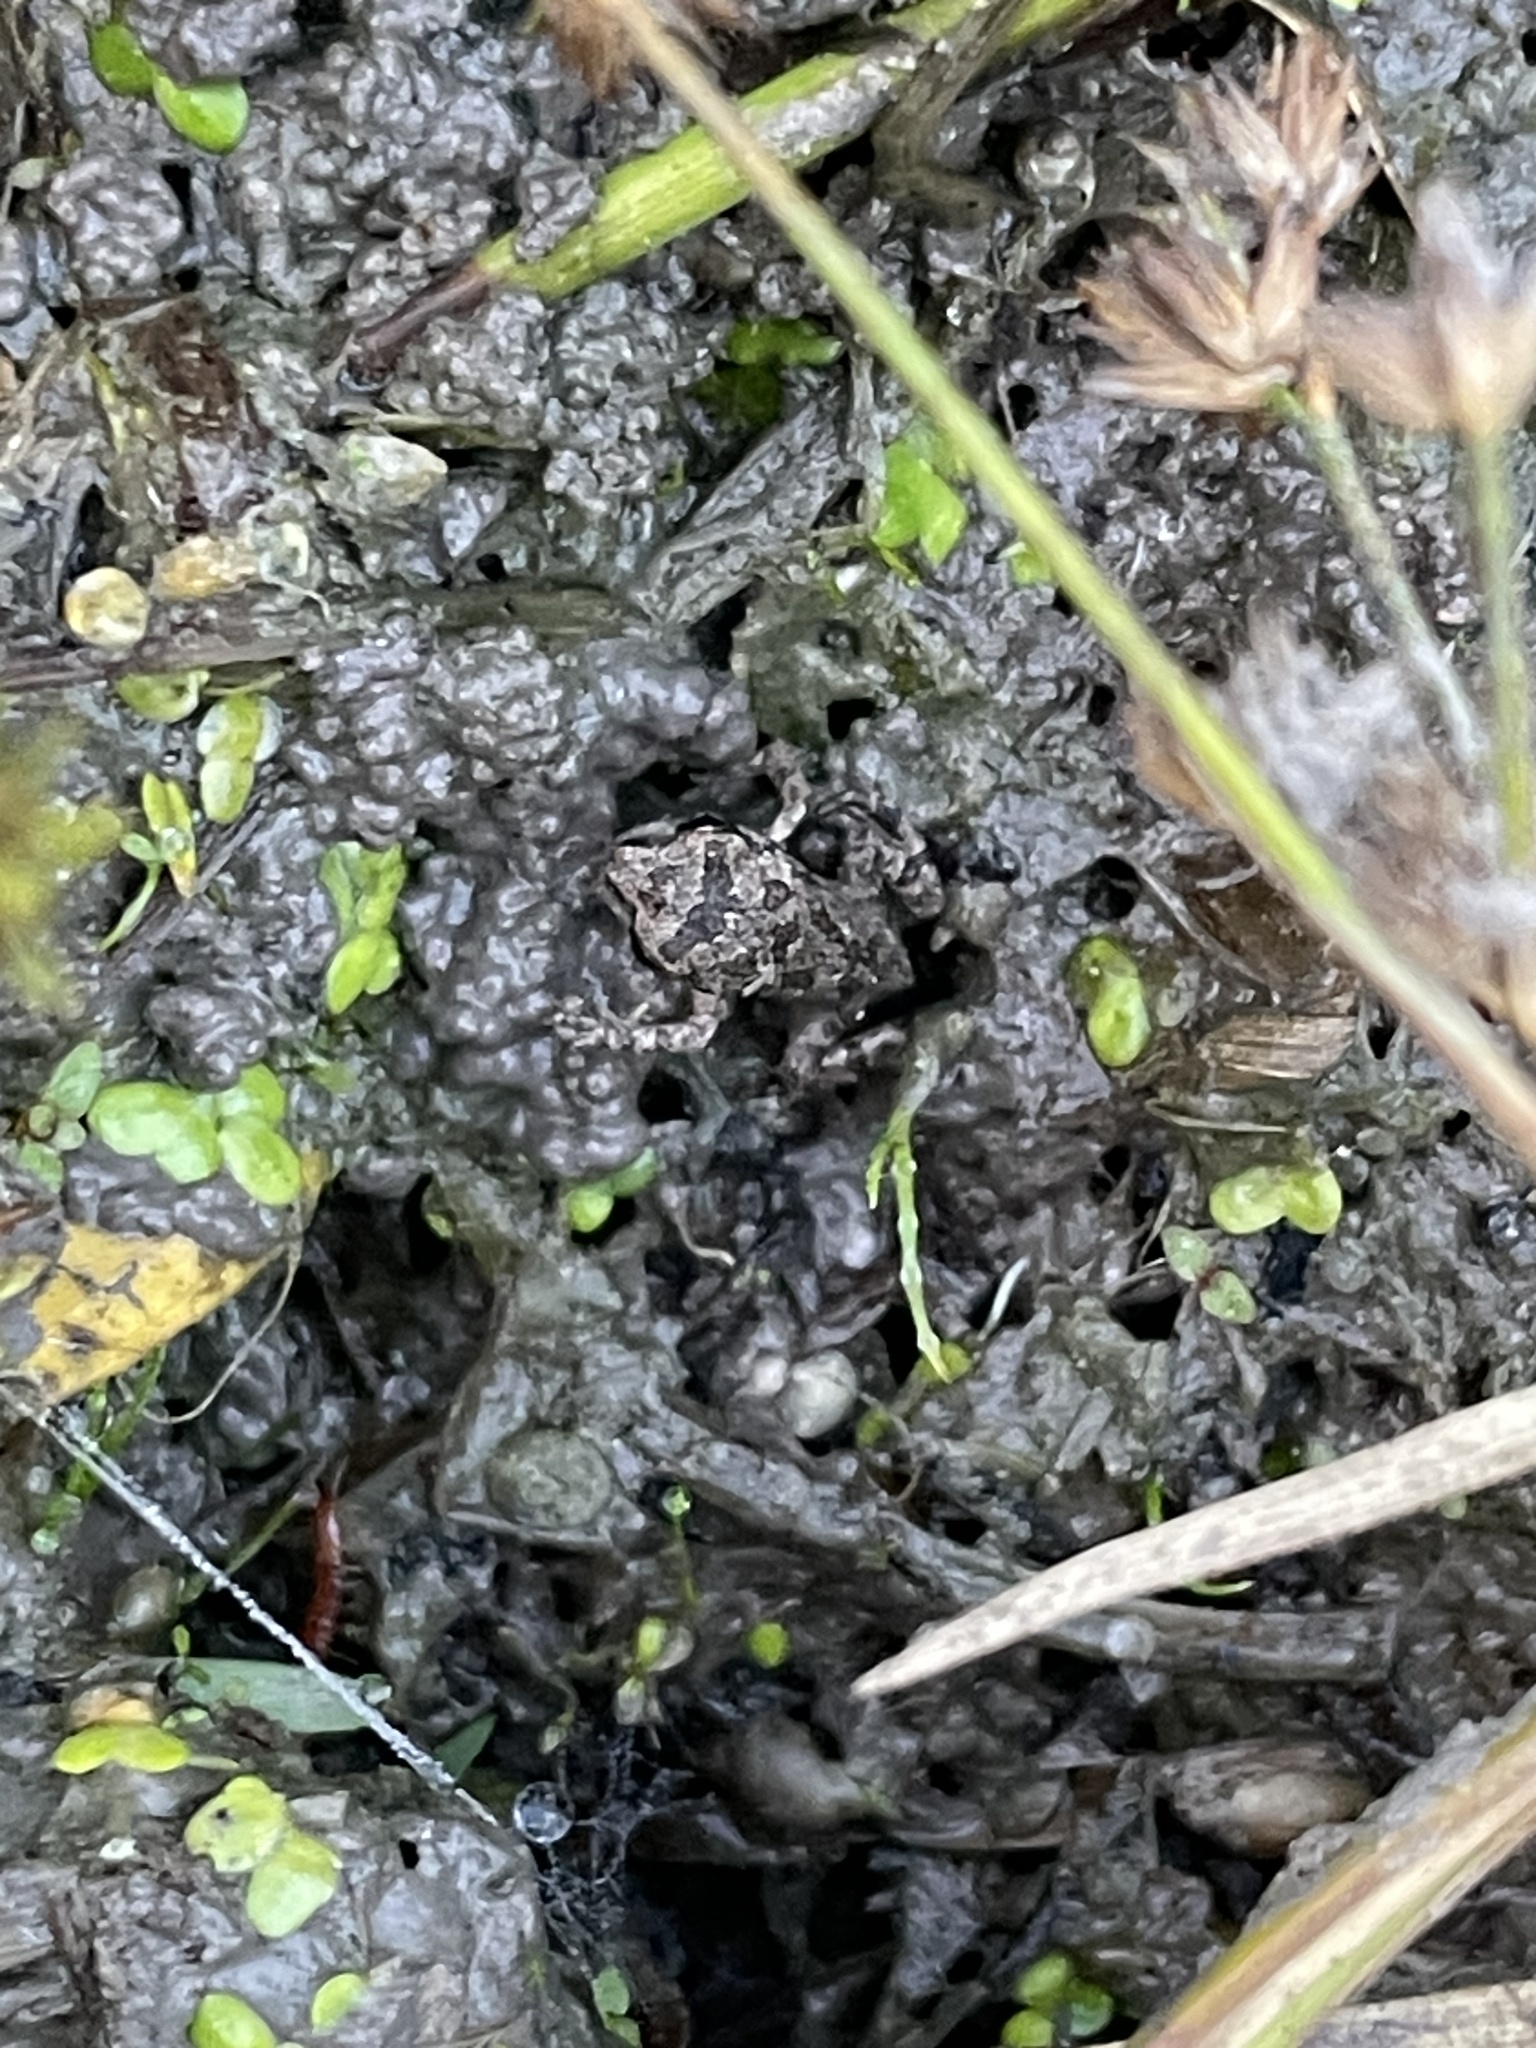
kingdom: Animalia
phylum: Chordata
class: Amphibia
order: Anura
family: Bufonidae
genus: Anaxyrus
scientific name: Anaxyrus fowleri
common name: Fowler's toad
